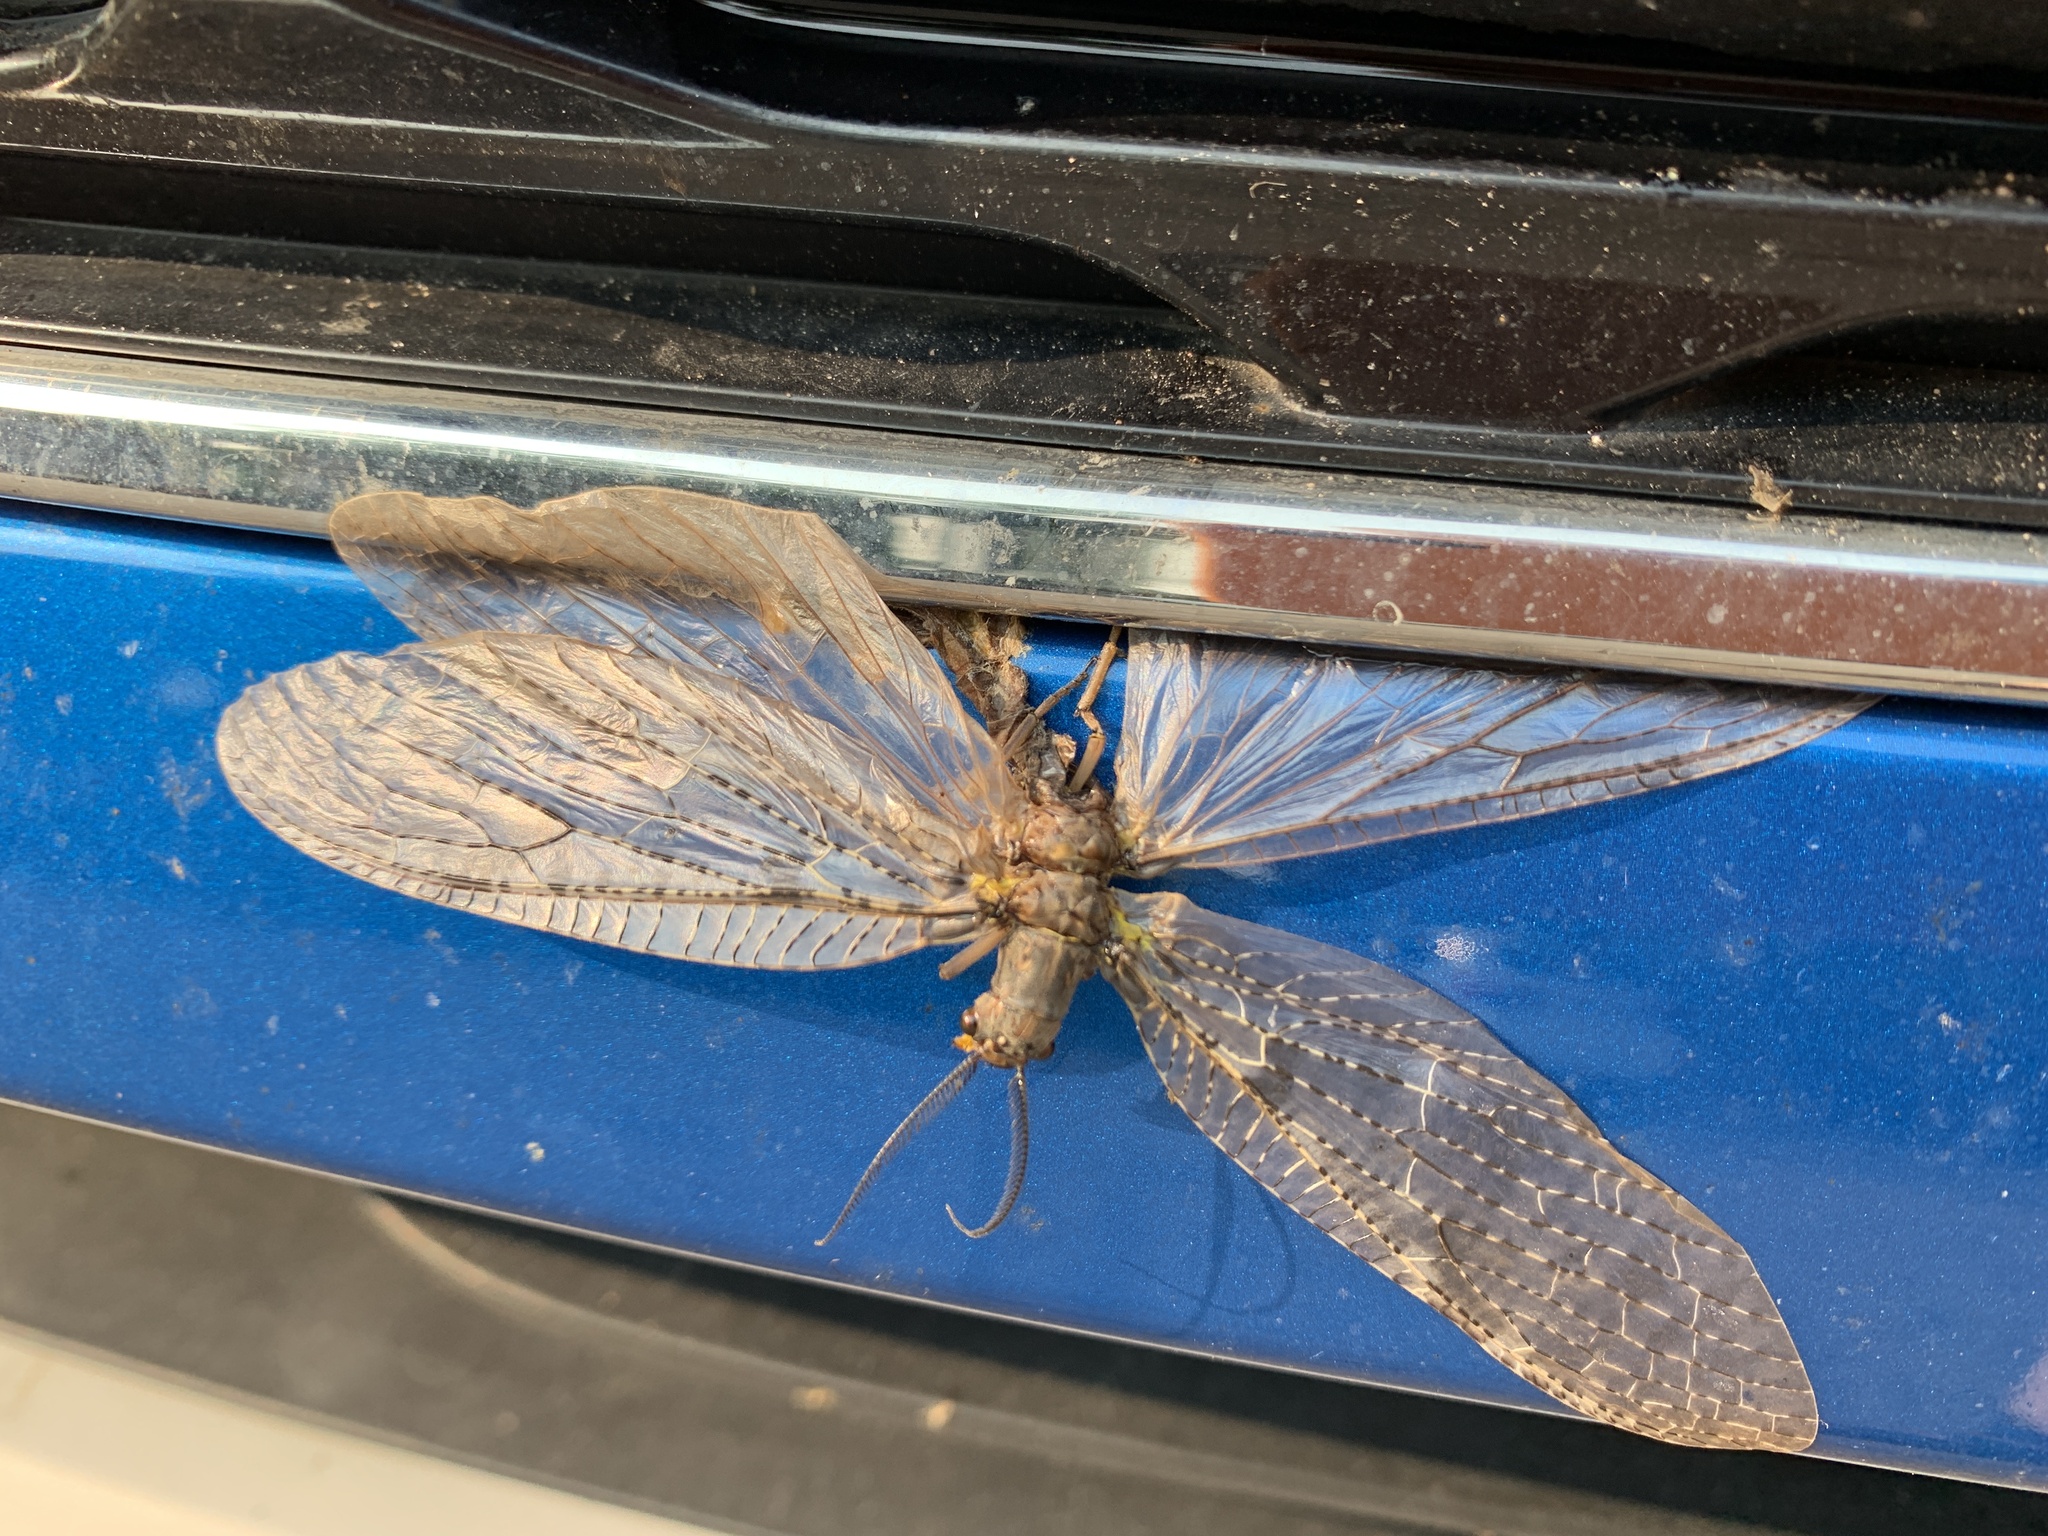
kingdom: Animalia
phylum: Arthropoda
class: Insecta
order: Megaloptera
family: Corydalidae
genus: Chauliodes
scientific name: Chauliodes pectinicornis
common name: Summer fishfly
